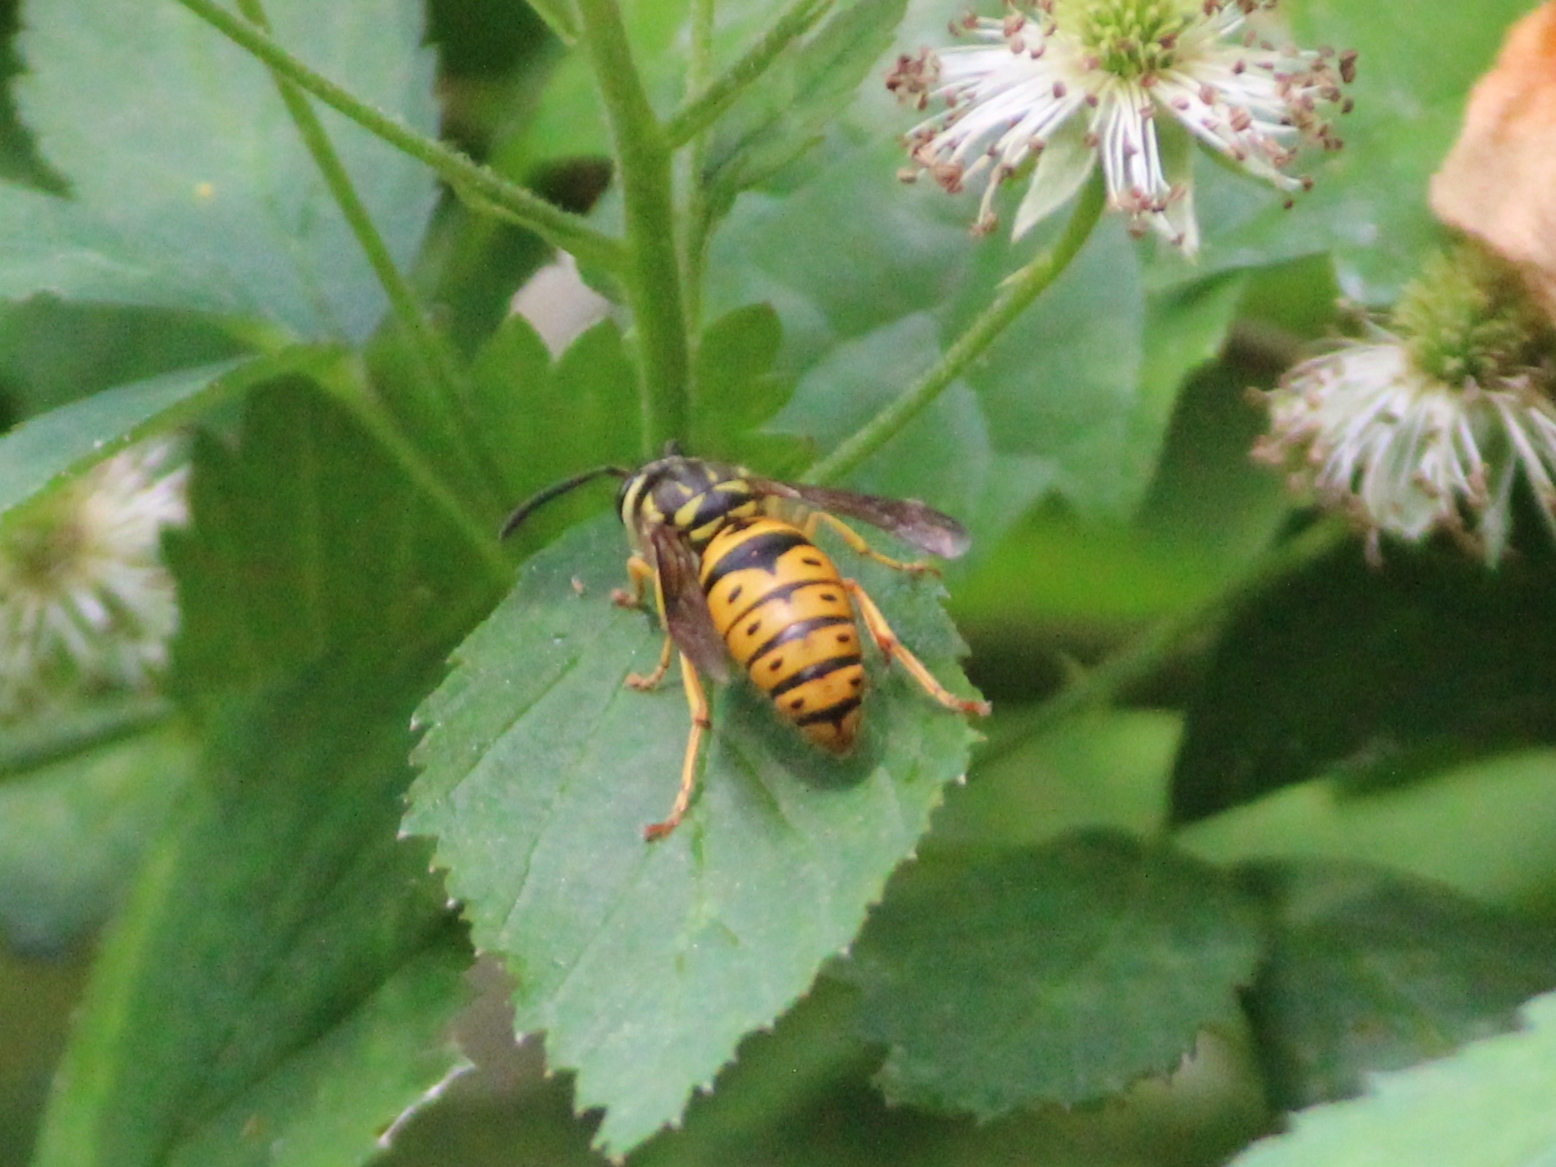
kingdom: Animalia
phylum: Arthropoda
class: Insecta
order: Hymenoptera
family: Vespidae
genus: Vespula
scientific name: Vespula maculifrons
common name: Eastern yellowjacket
